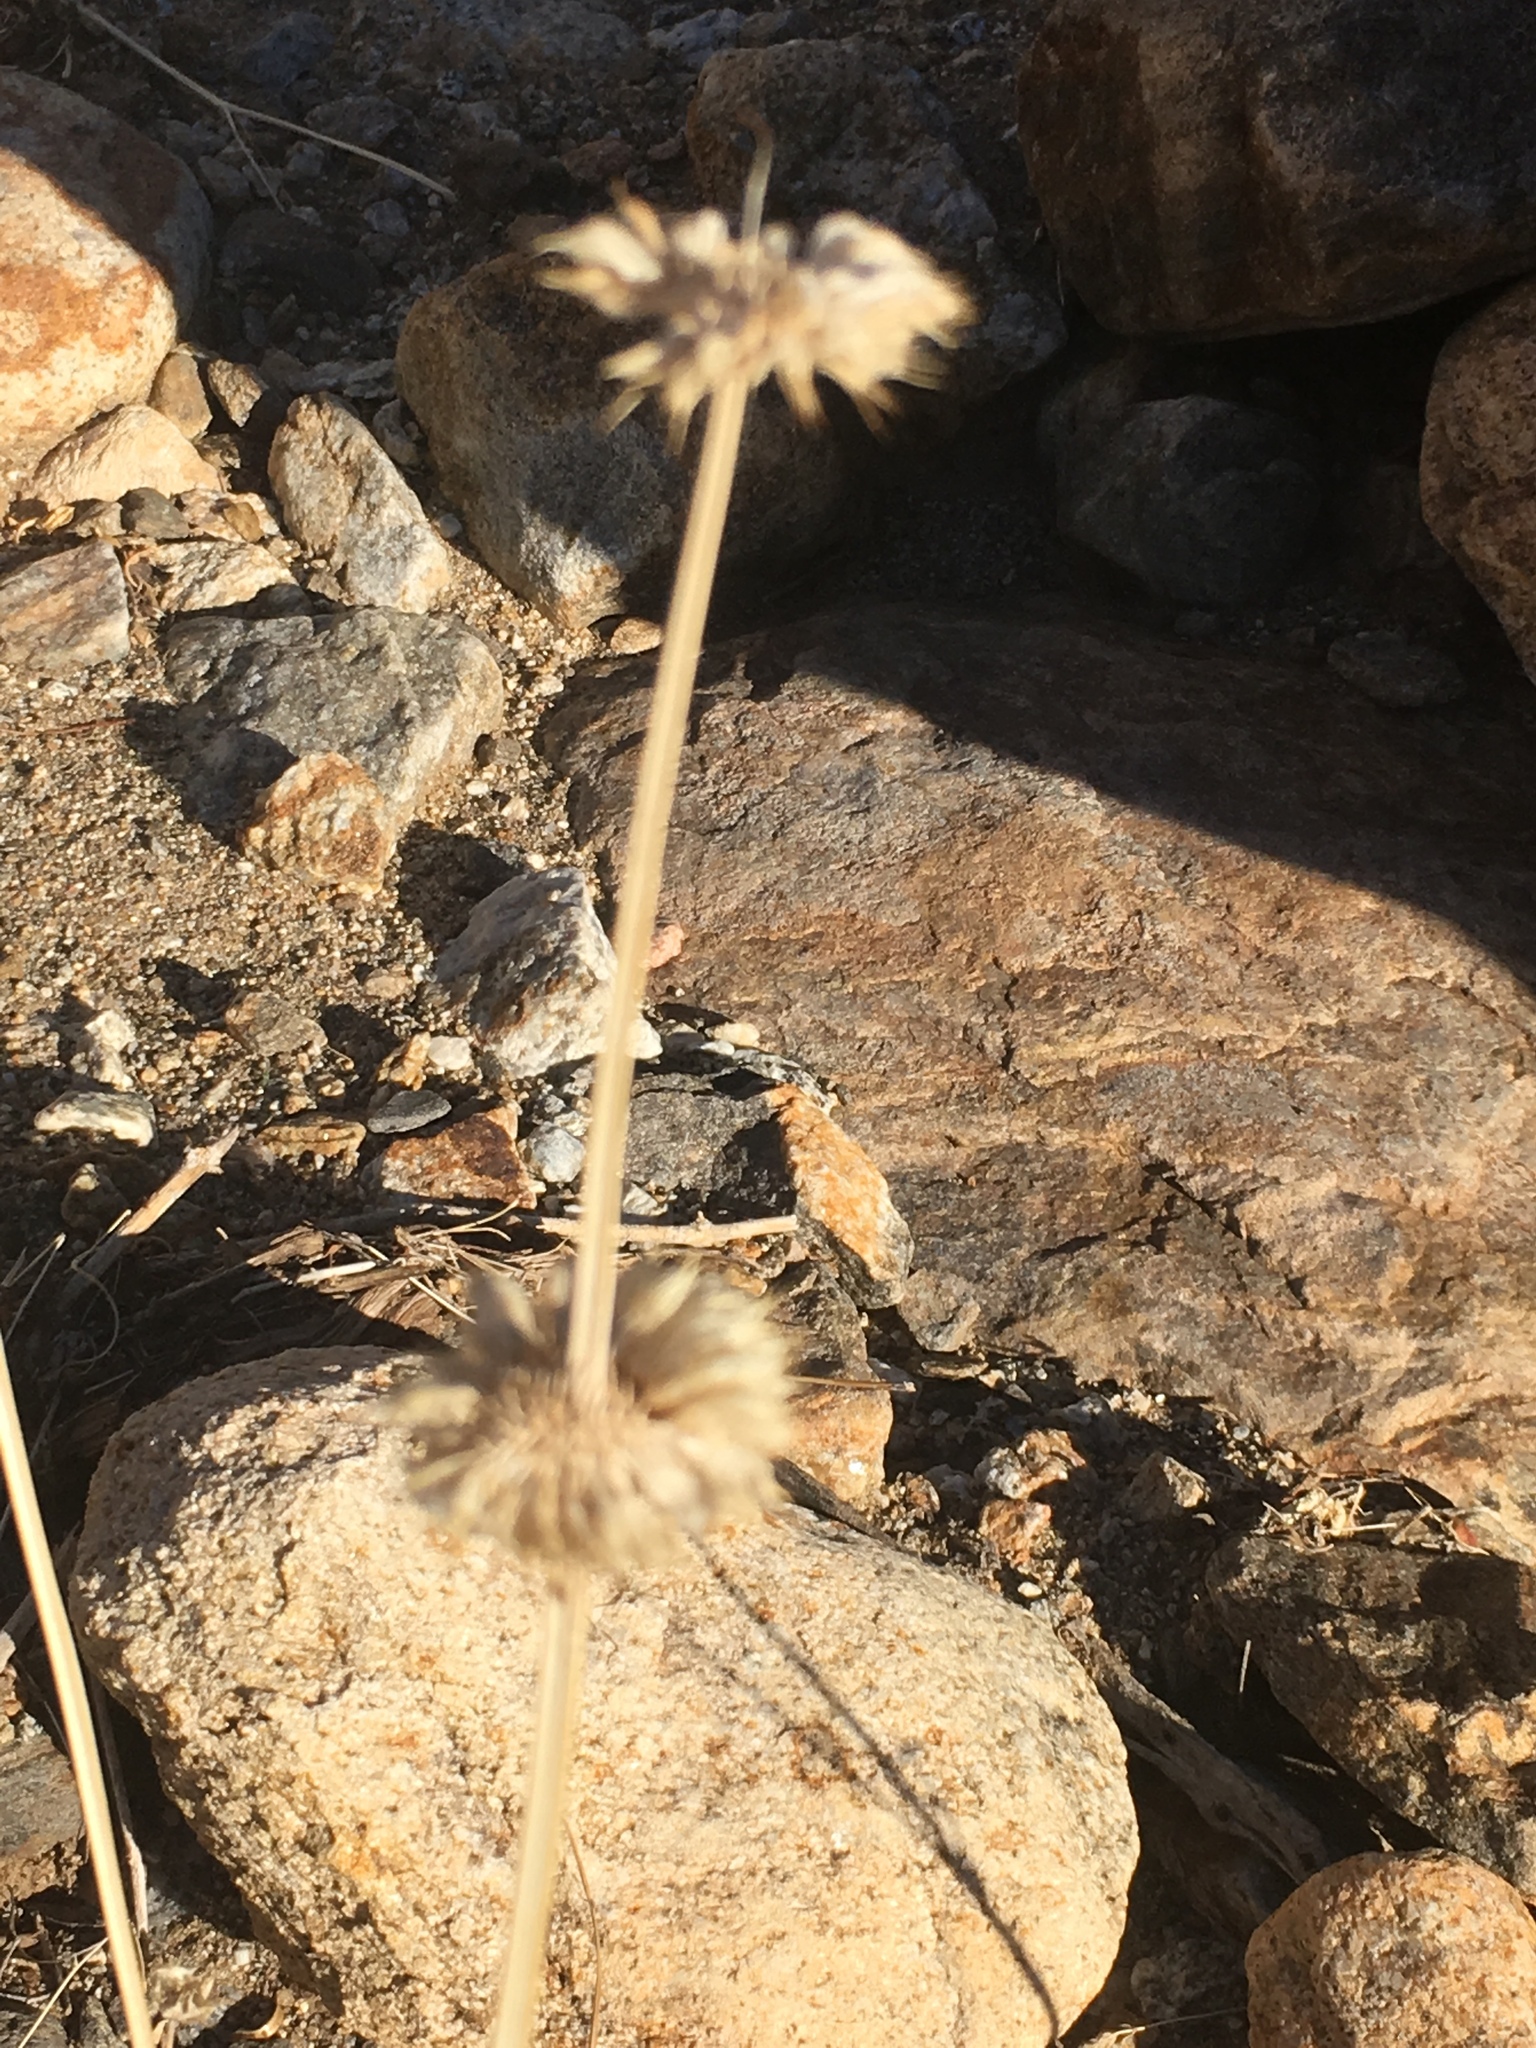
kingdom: Plantae
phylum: Tracheophyta
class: Magnoliopsida
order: Lamiales
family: Lamiaceae
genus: Salvia
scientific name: Salvia columbariae
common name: Chia
